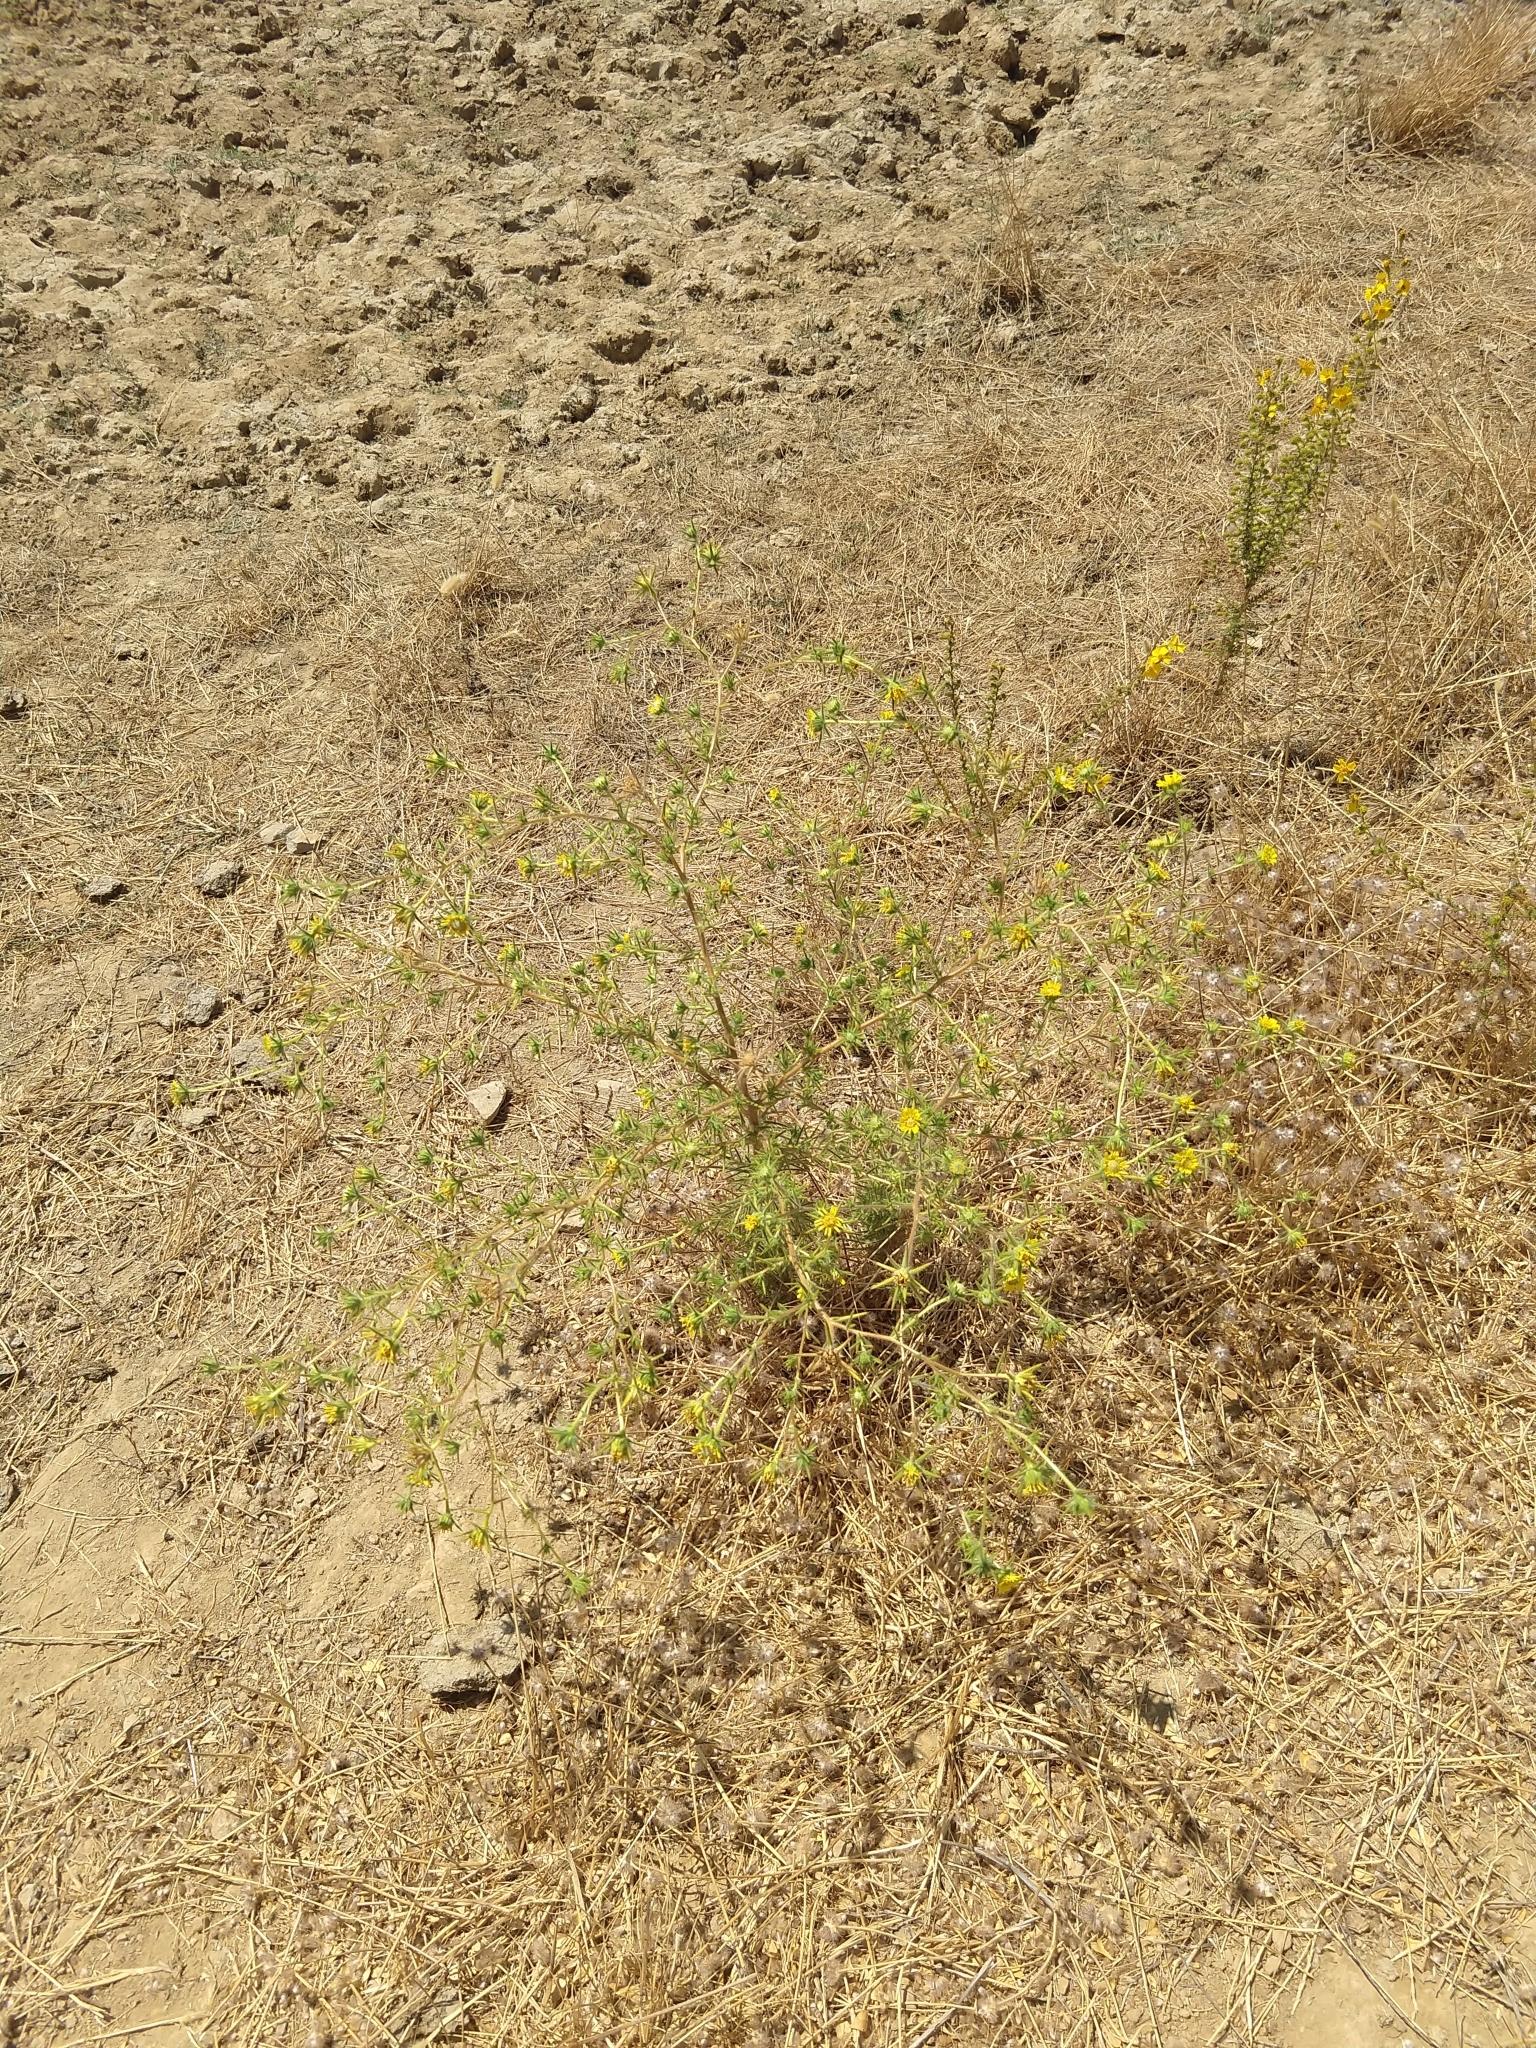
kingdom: Plantae
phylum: Tracheophyta
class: Magnoliopsida
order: Asterales
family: Asteraceae
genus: Centromadia
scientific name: Centromadia fitchii
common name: Fitch's spikeweed
